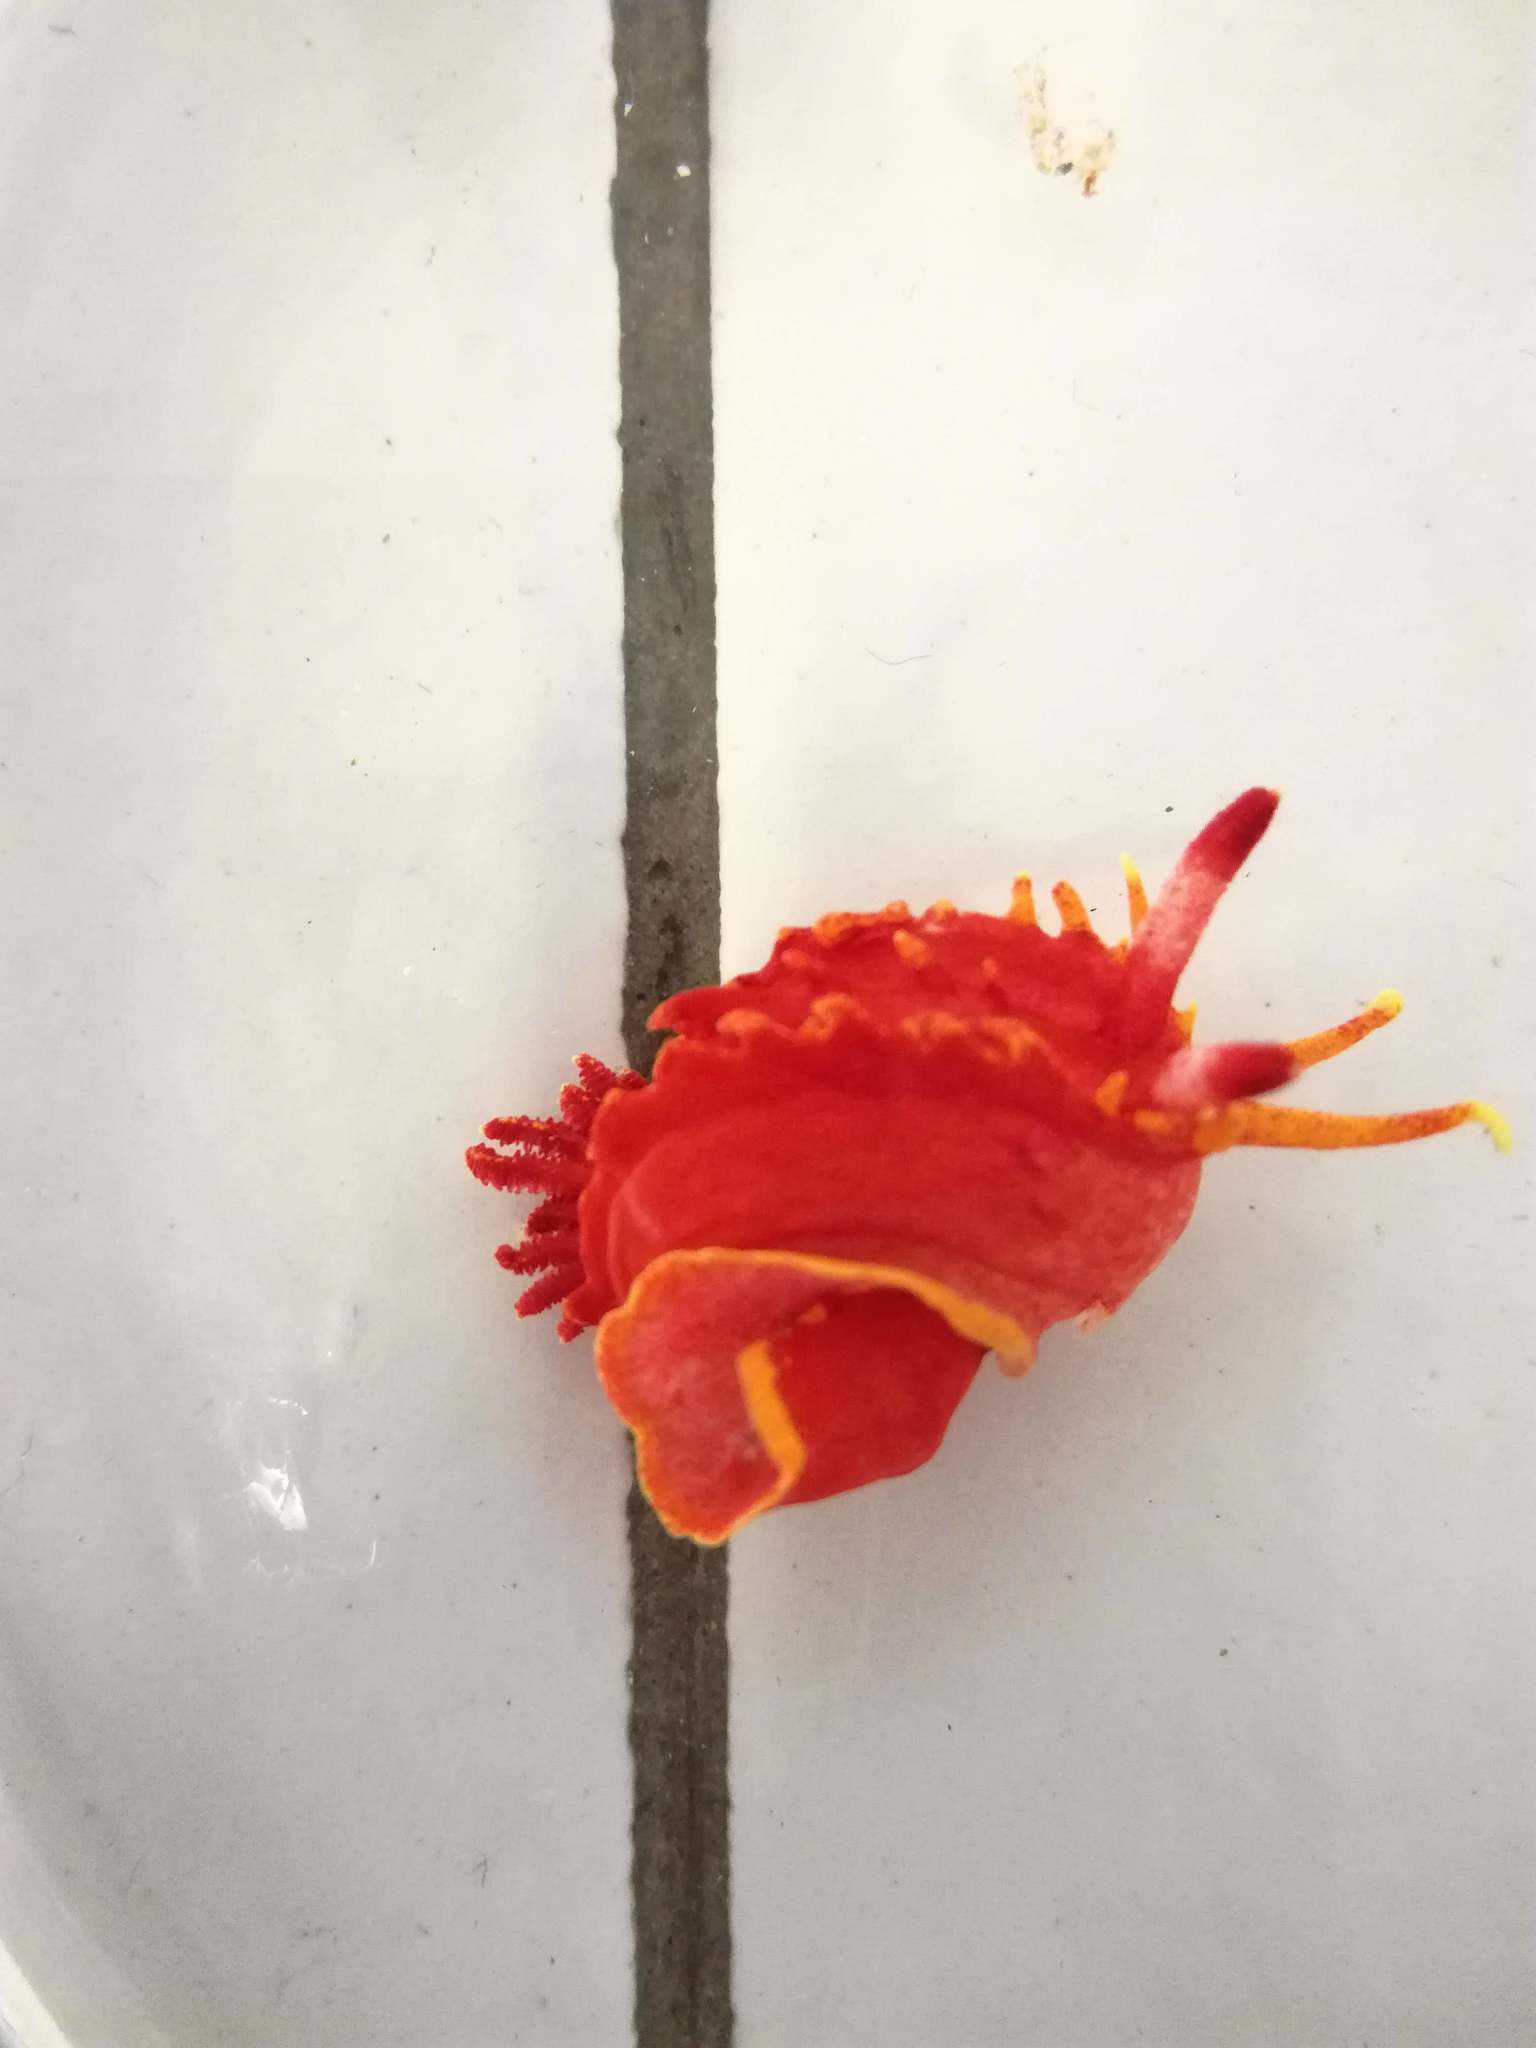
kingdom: Animalia
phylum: Mollusca
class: Gastropoda
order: Nudibranchia
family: Goniodorididae
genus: Okenia
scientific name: Okenia elegans
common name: Yellow skirt slug
